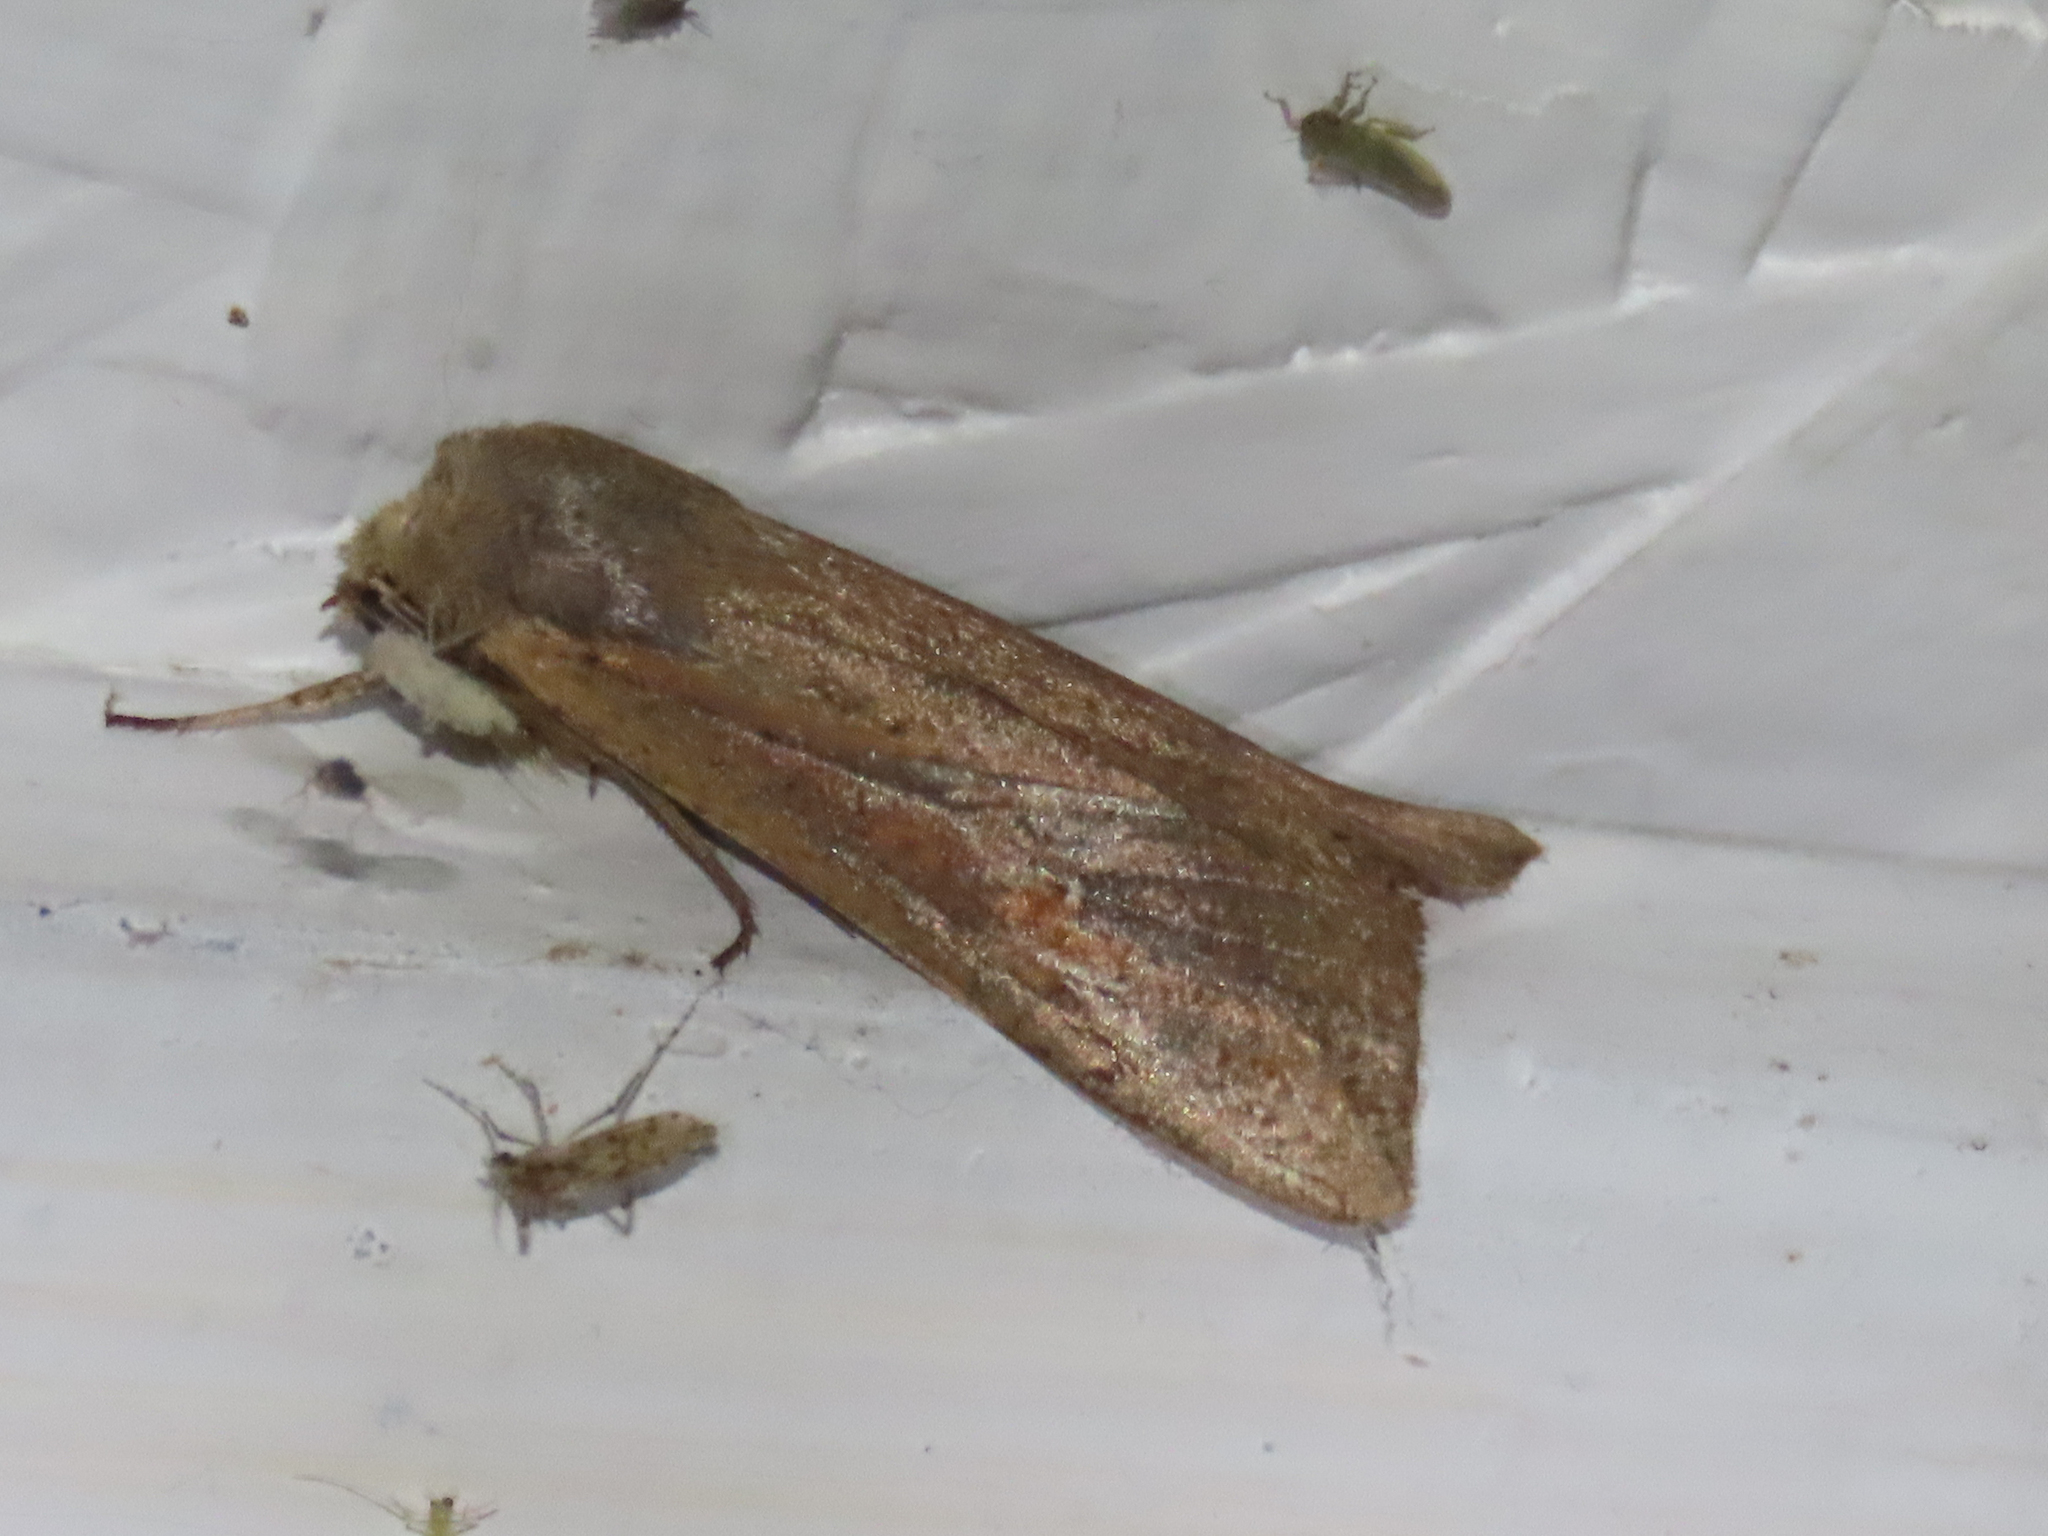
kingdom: Animalia
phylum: Arthropoda
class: Insecta
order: Lepidoptera
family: Noctuidae
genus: Mythimna
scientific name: Mythimna unipuncta
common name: White-speck
